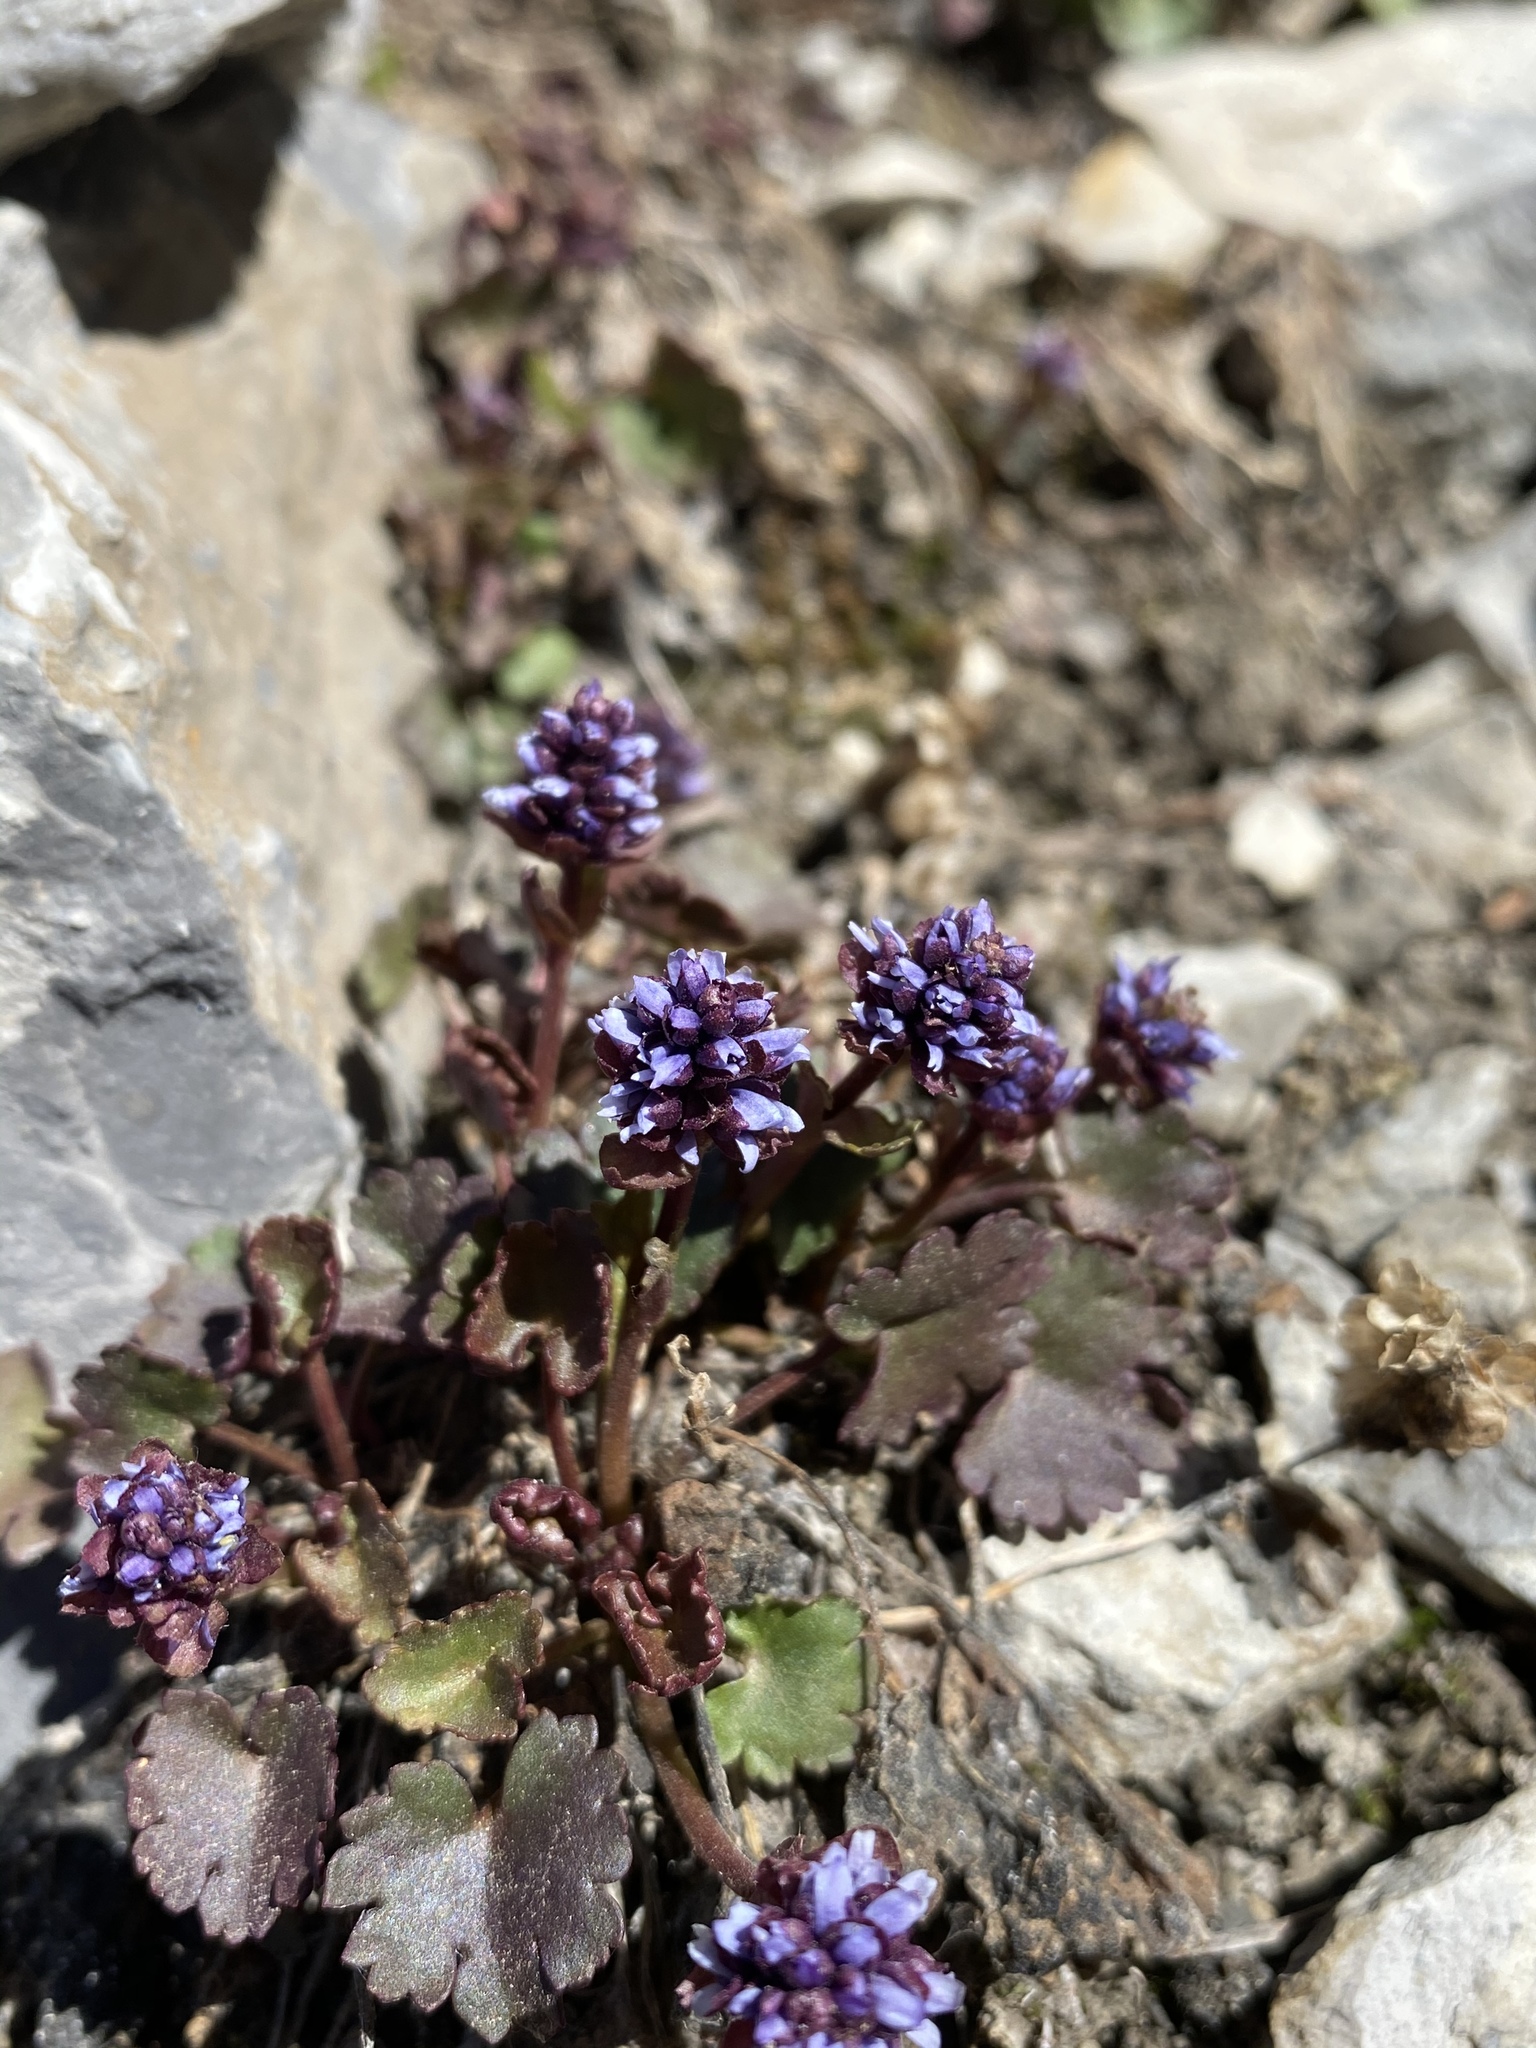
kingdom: Plantae
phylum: Tracheophyta
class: Magnoliopsida
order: Lamiales
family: Plantaginaceae
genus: Synthyris
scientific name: Synthyris ranunculina
